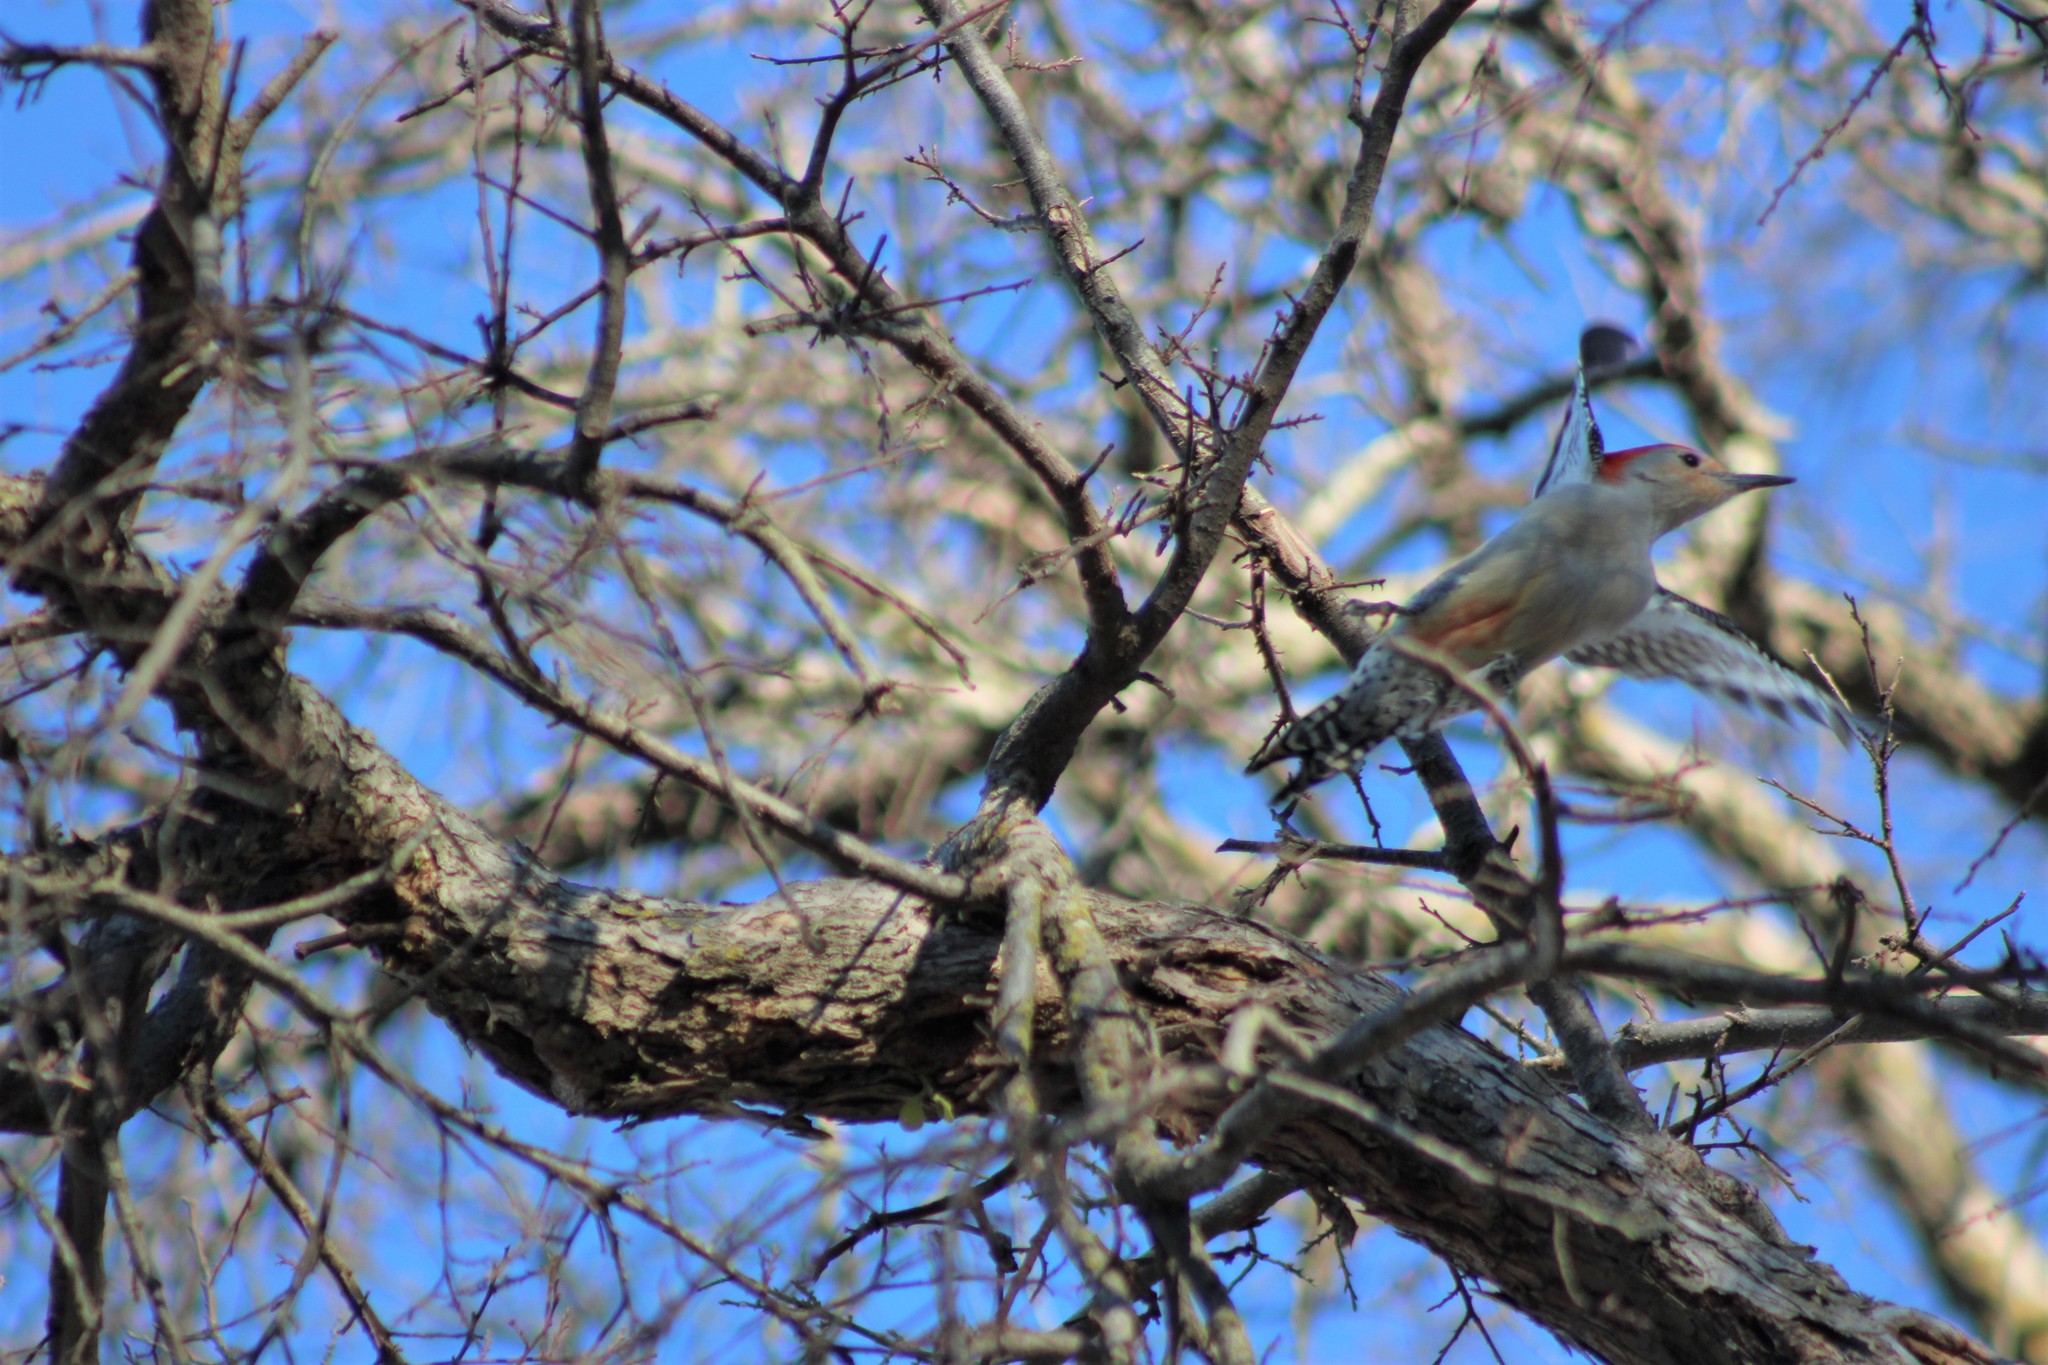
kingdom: Animalia
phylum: Chordata
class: Aves
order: Piciformes
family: Picidae
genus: Melanerpes
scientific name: Melanerpes carolinus
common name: Red-bellied woodpecker
